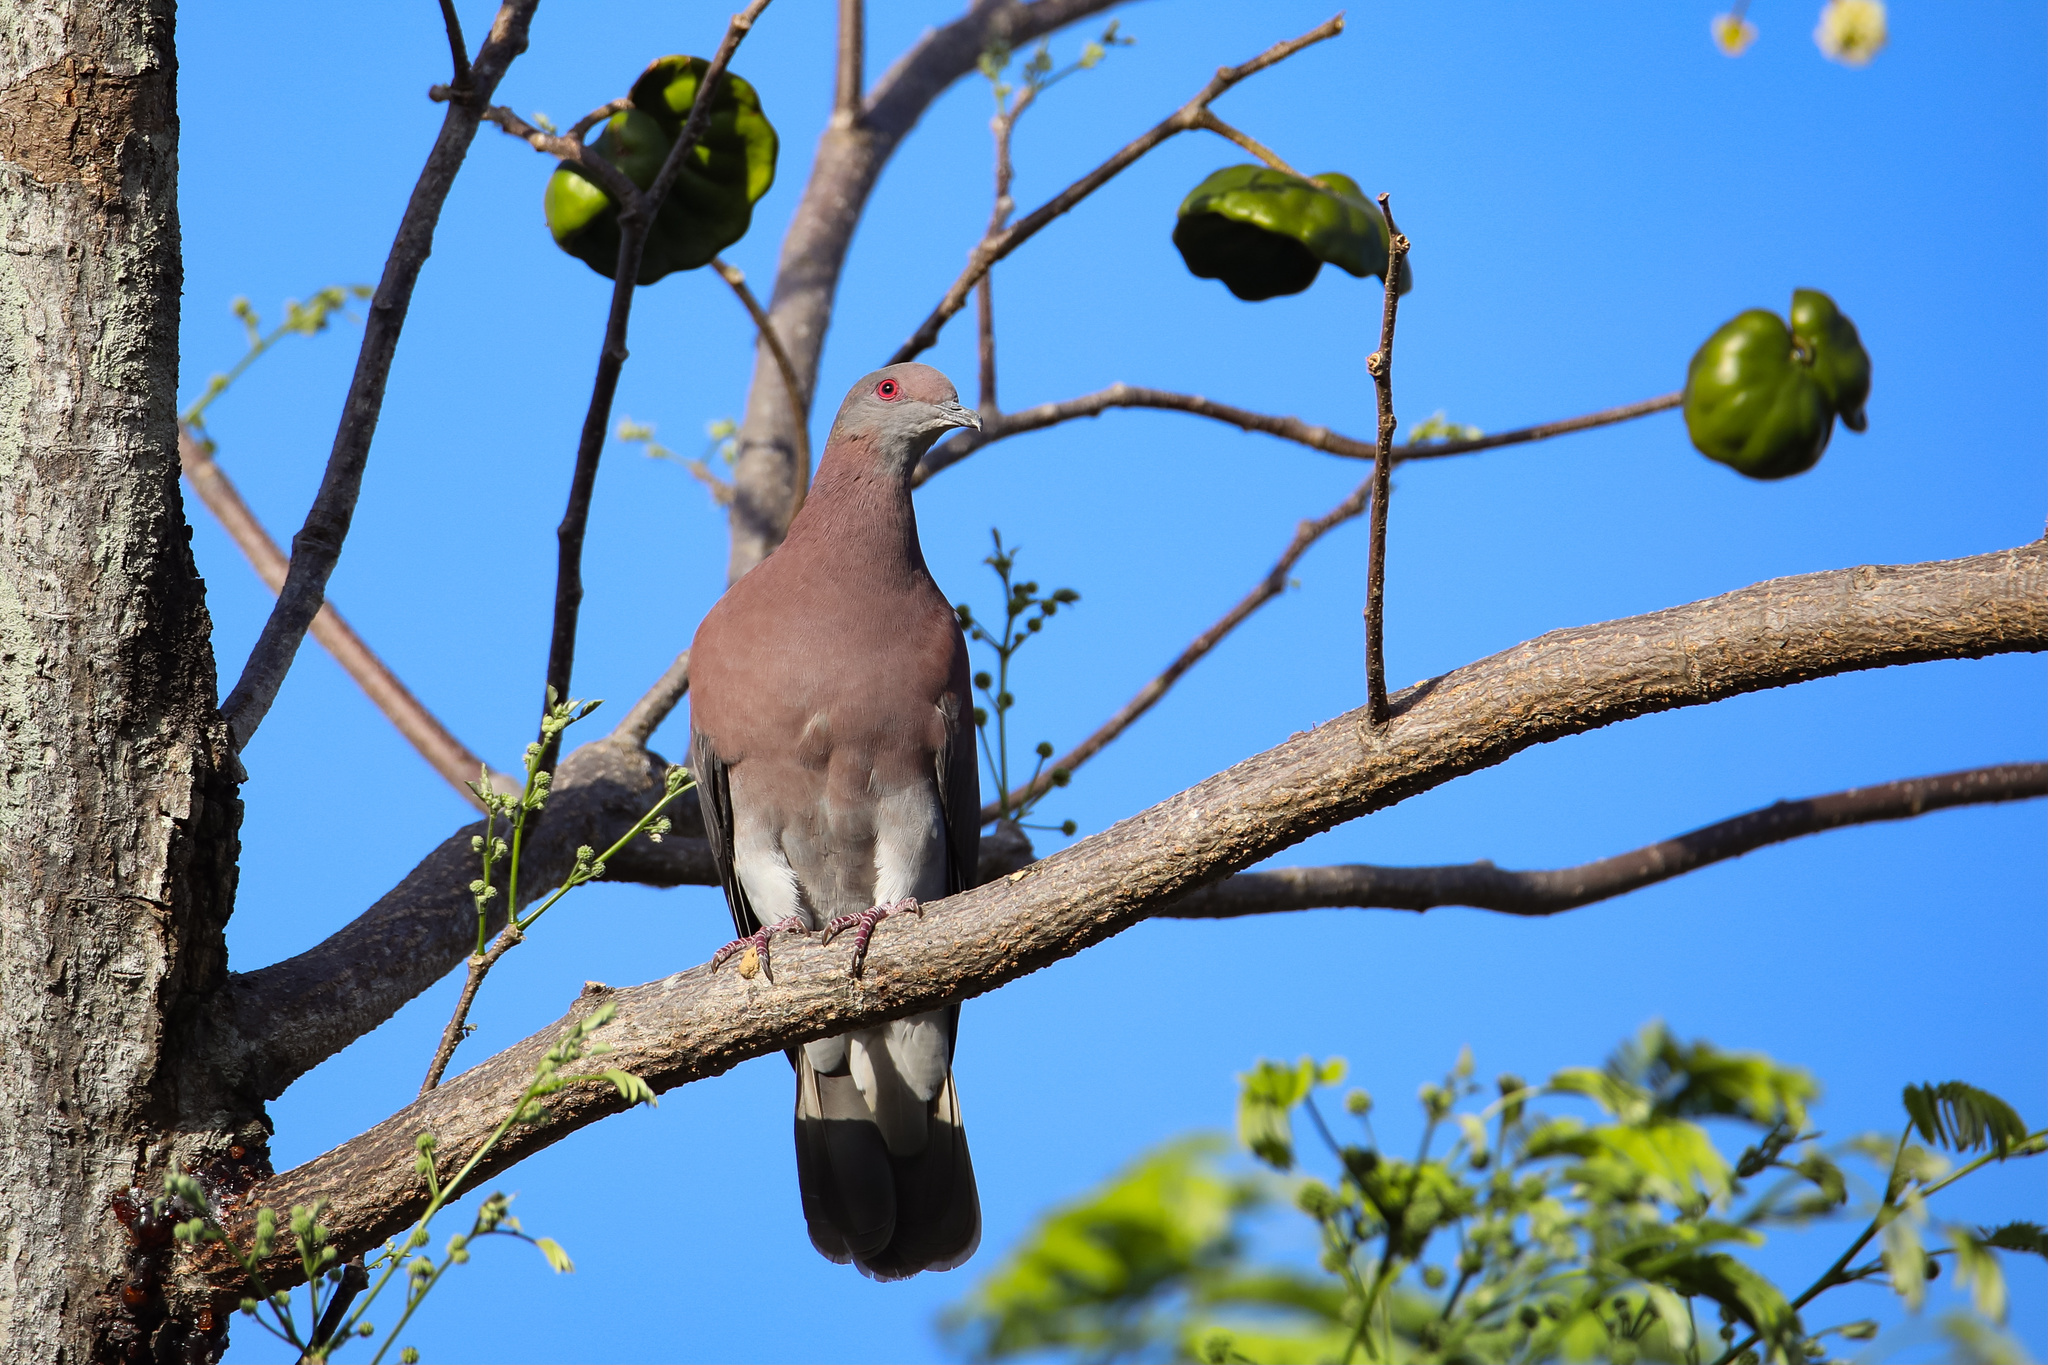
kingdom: Animalia
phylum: Chordata
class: Aves
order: Columbiformes
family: Columbidae
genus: Patagioenas
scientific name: Patagioenas cayennensis
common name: Pale-vented pigeon
